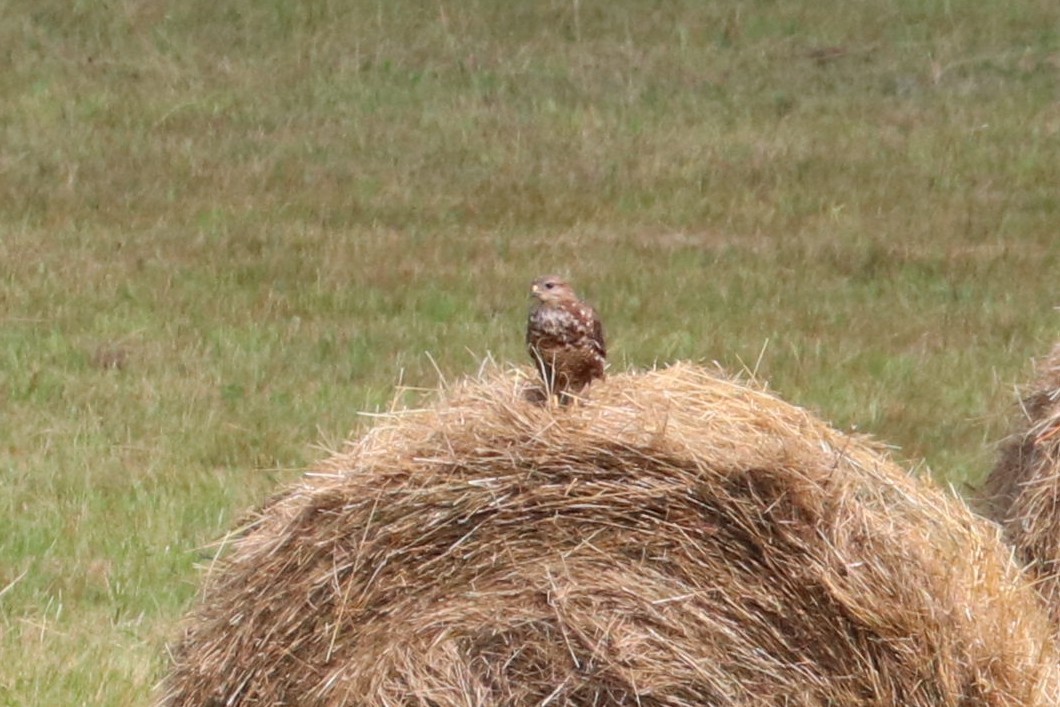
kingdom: Animalia
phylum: Chordata
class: Aves
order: Accipitriformes
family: Accipitridae
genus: Buteo
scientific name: Buteo buteo
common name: Common buzzard
